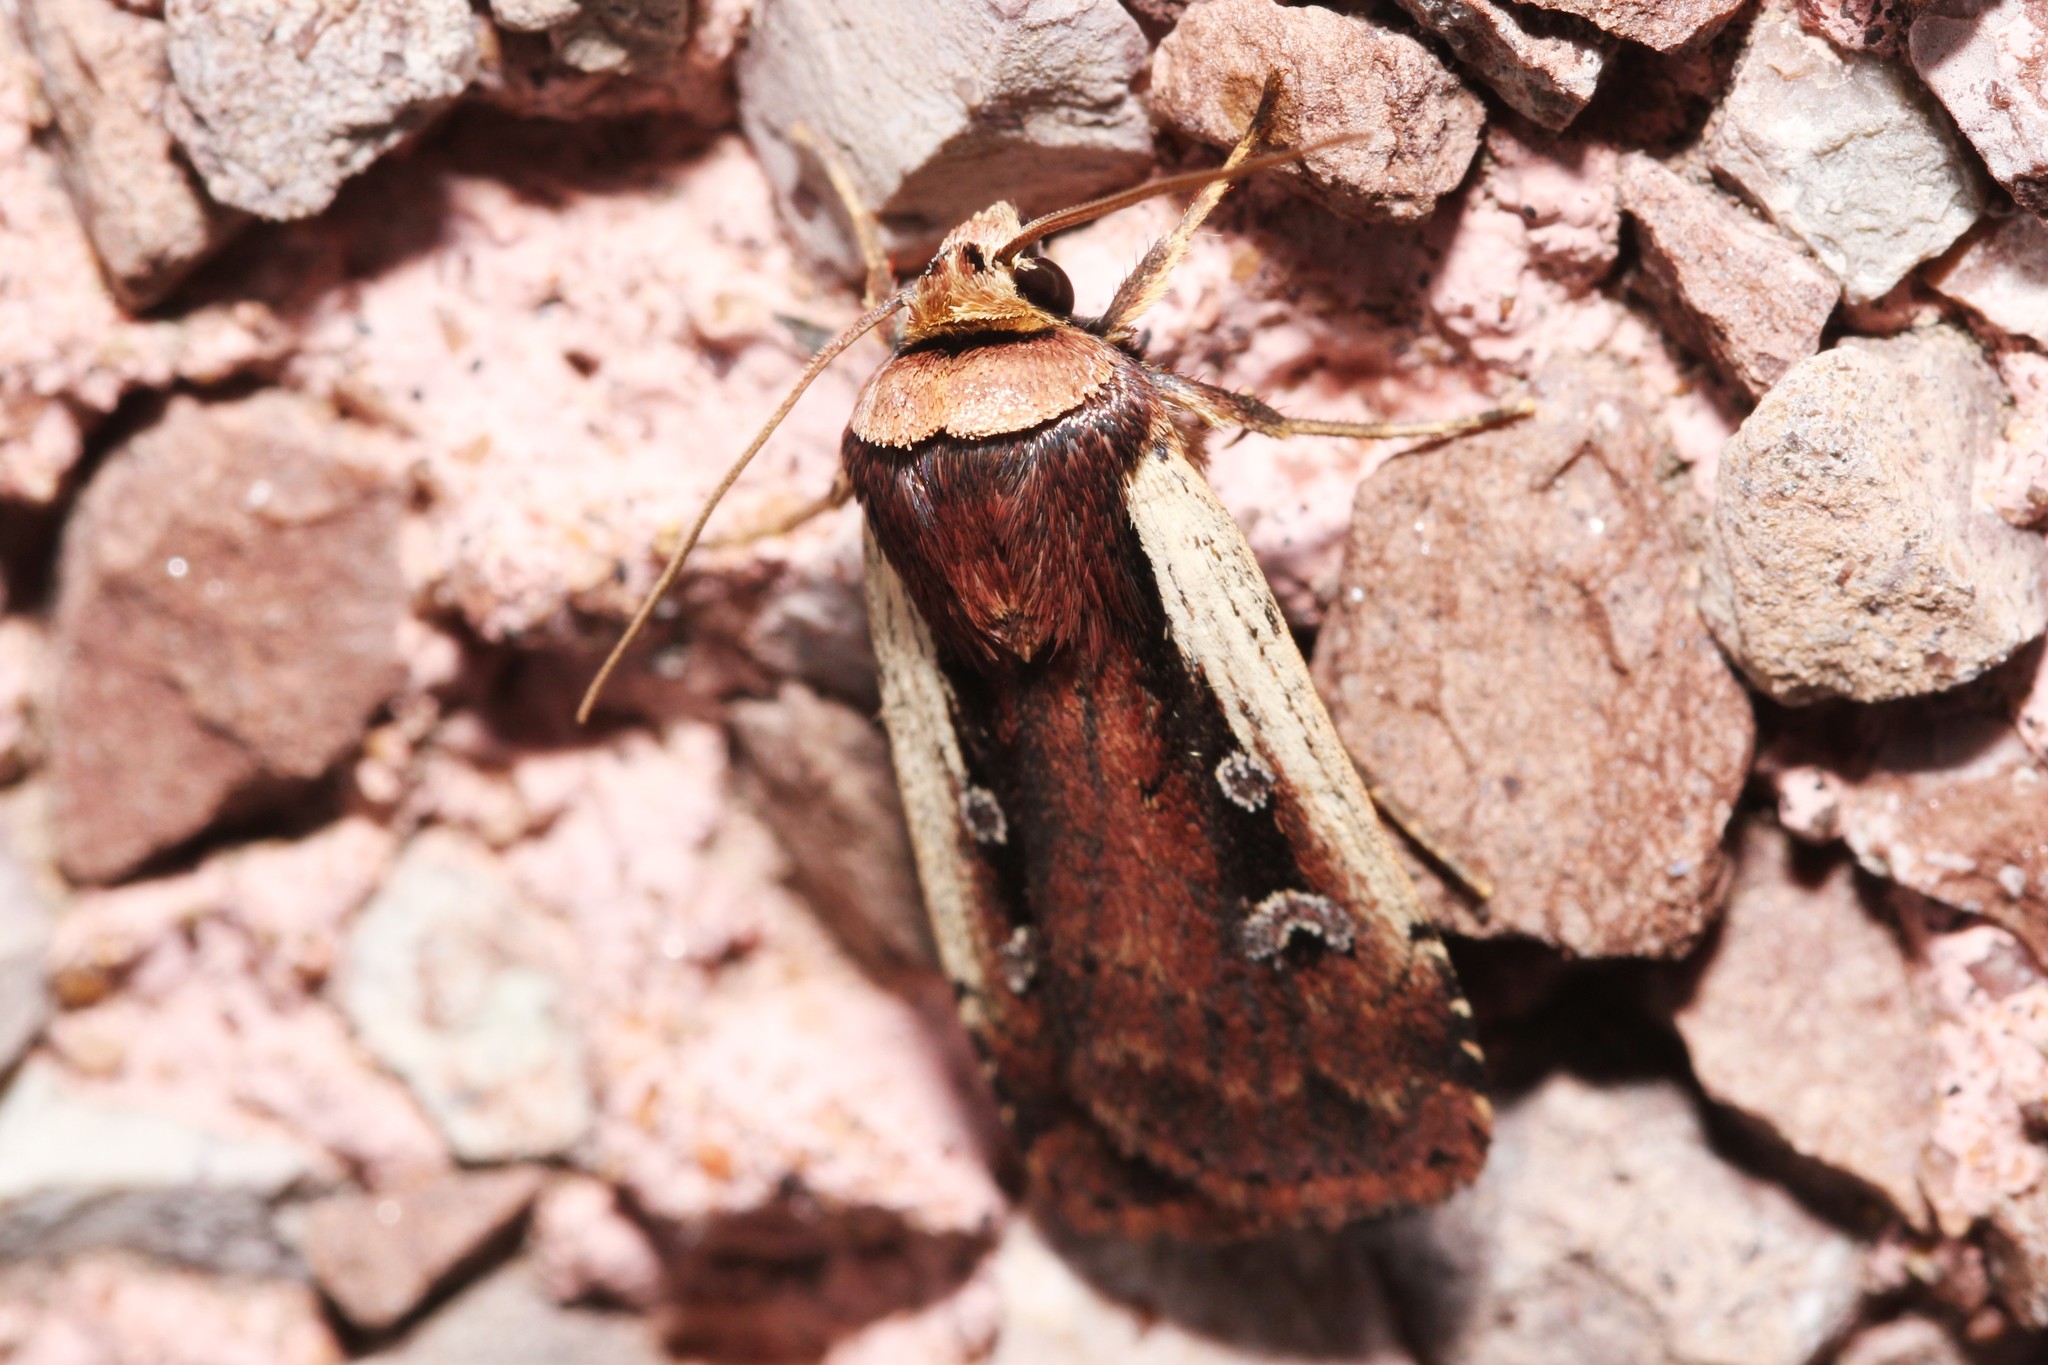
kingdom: Animalia
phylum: Arthropoda
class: Insecta
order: Lepidoptera
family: Noctuidae
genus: Ochropleura
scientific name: Ochropleura implecta
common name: Flame-shouldered dart
